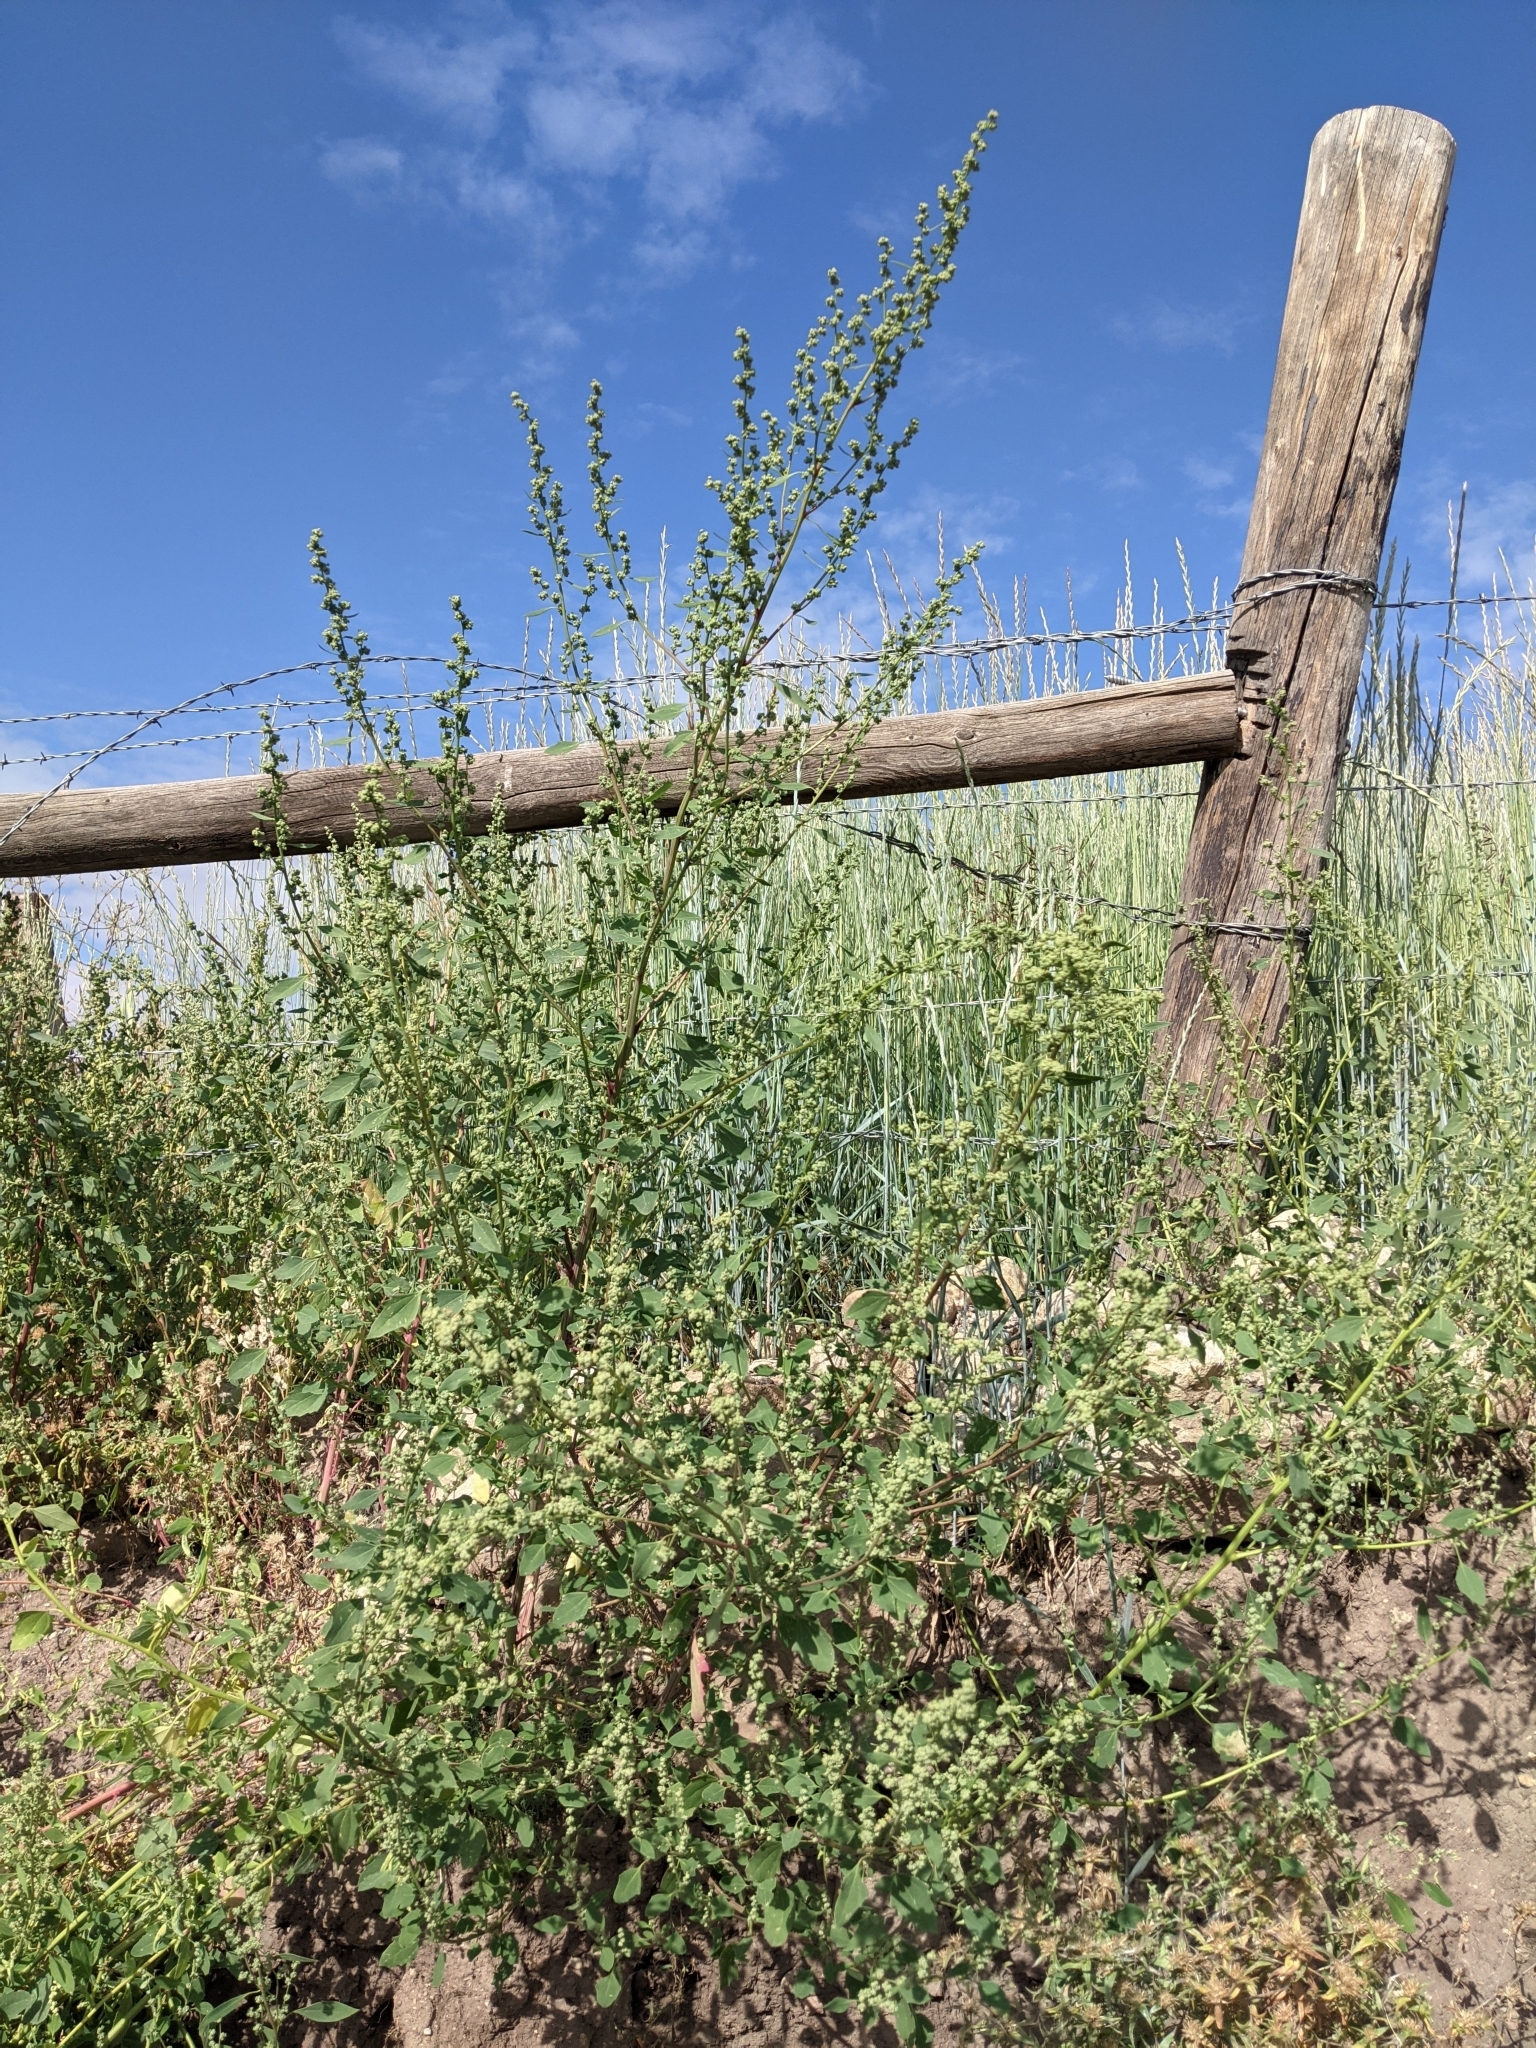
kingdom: Plantae
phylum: Tracheophyta
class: Magnoliopsida
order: Caryophyllales
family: Amaranthaceae
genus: Chenopodium
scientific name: Chenopodium album
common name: Fat-hen
